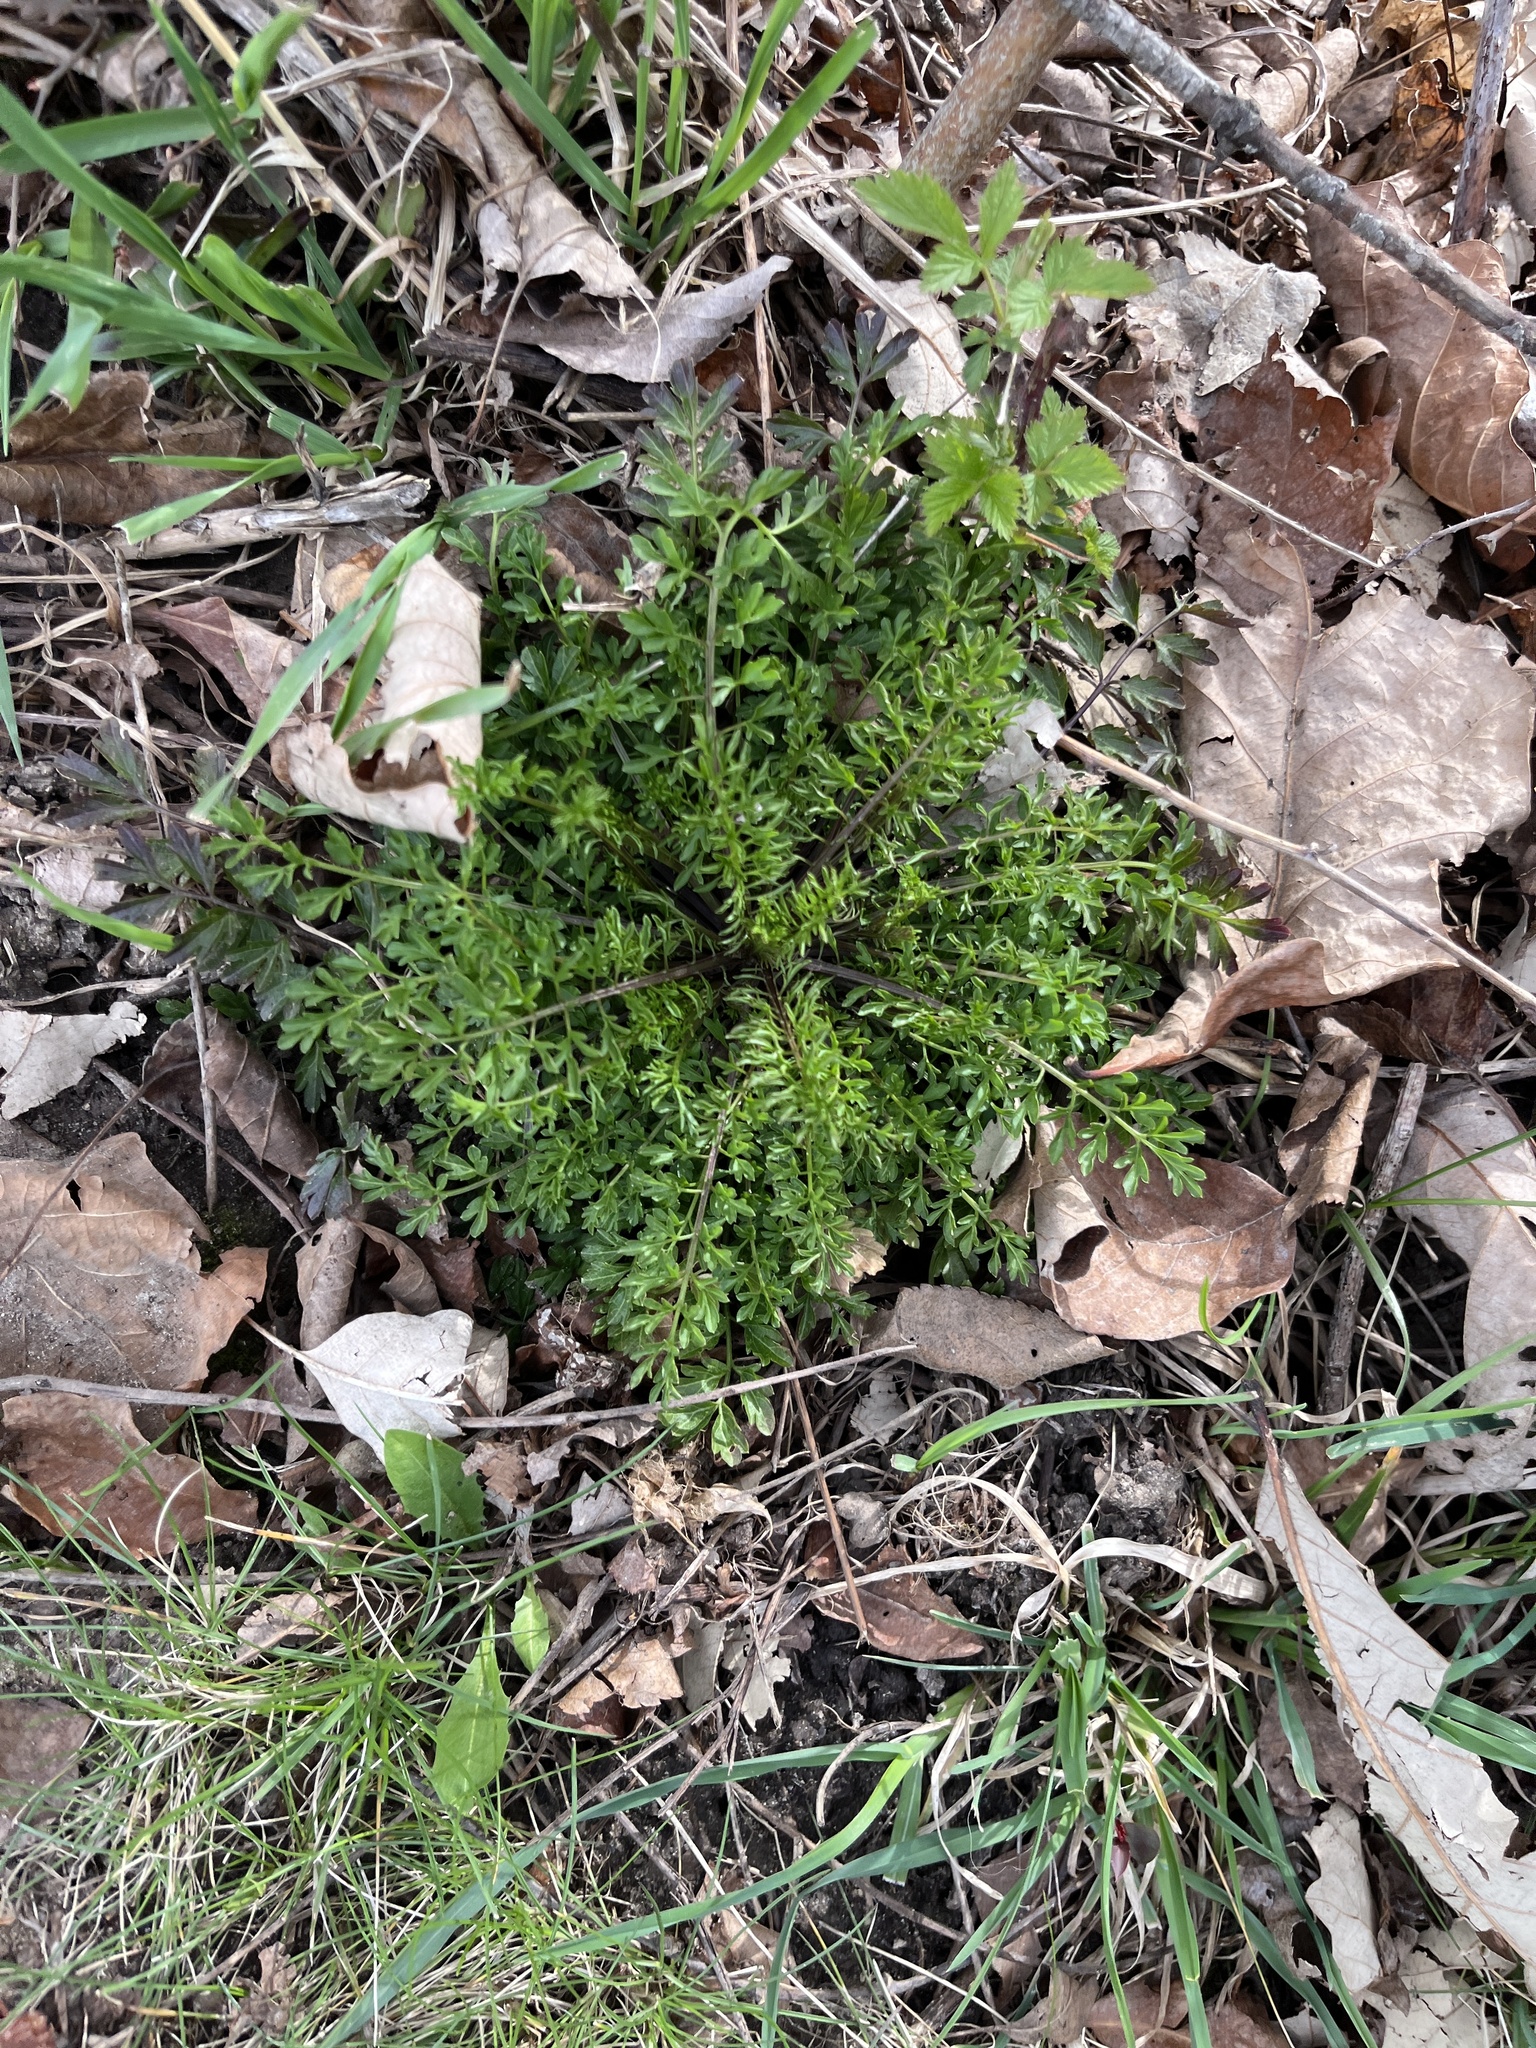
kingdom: Plantae
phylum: Tracheophyta
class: Magnoliopsida
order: Brassicales
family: Brassicaceae
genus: Cardamine
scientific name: Cardamine impatiens
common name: Narrow-leaved bitter-cress
